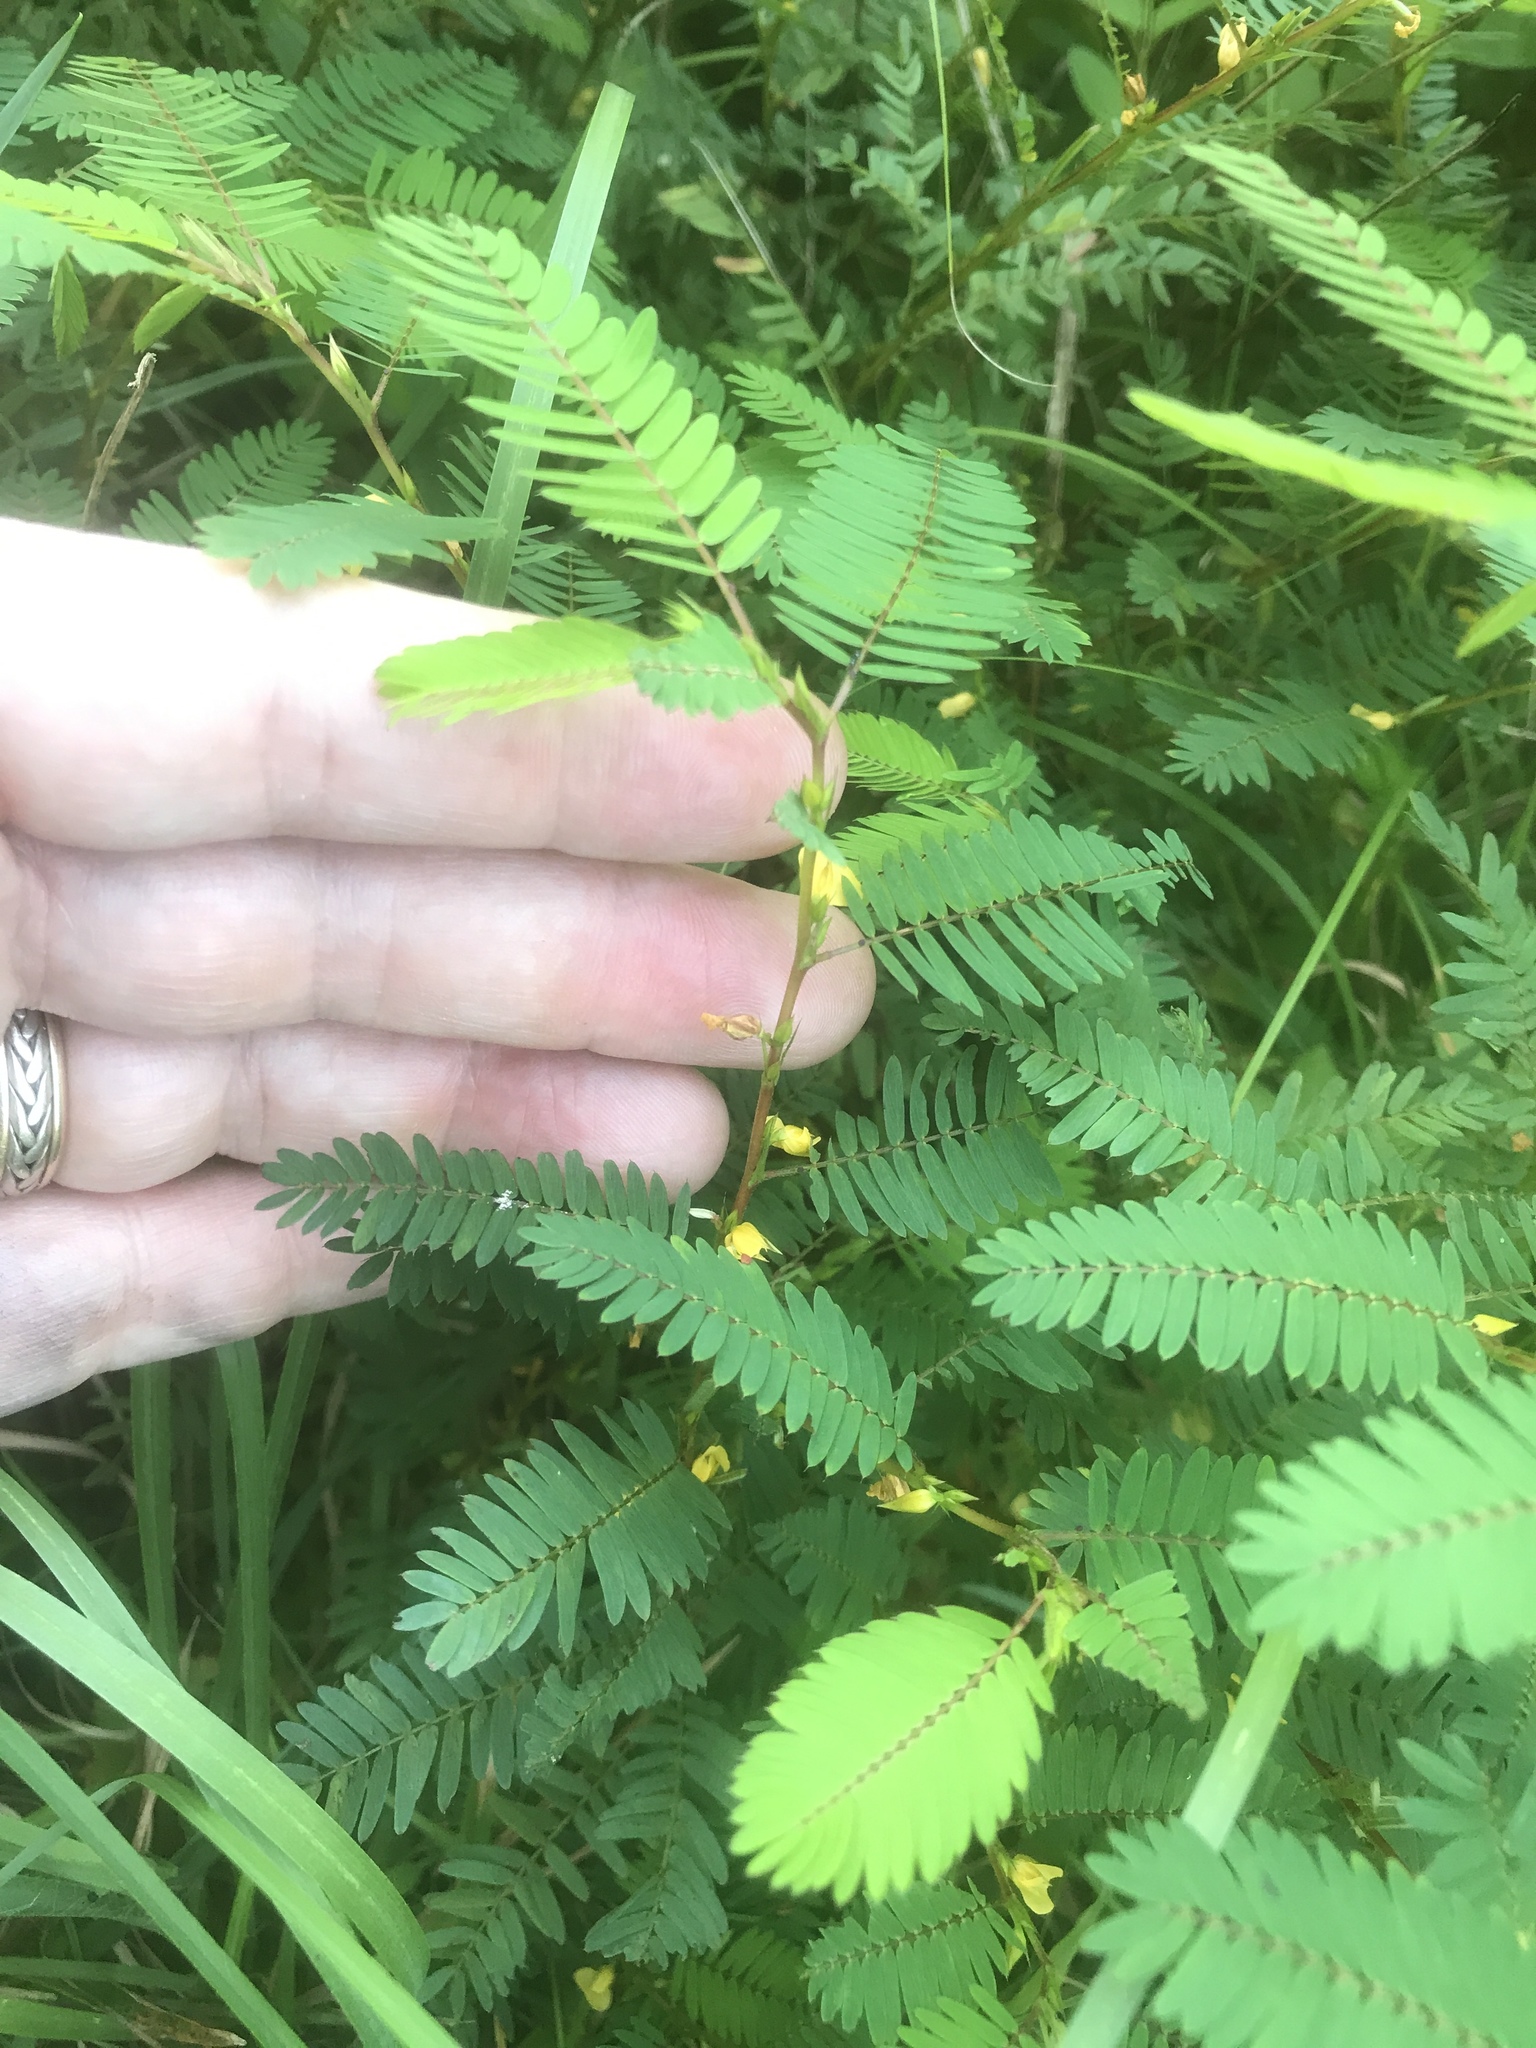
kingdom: Plantae
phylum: Tracheophyta
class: Magnoliopsida
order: Fabales
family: Fabaceae
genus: Chamaecrista
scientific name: Chamaecrista nictitans
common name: Sensitive cassia
